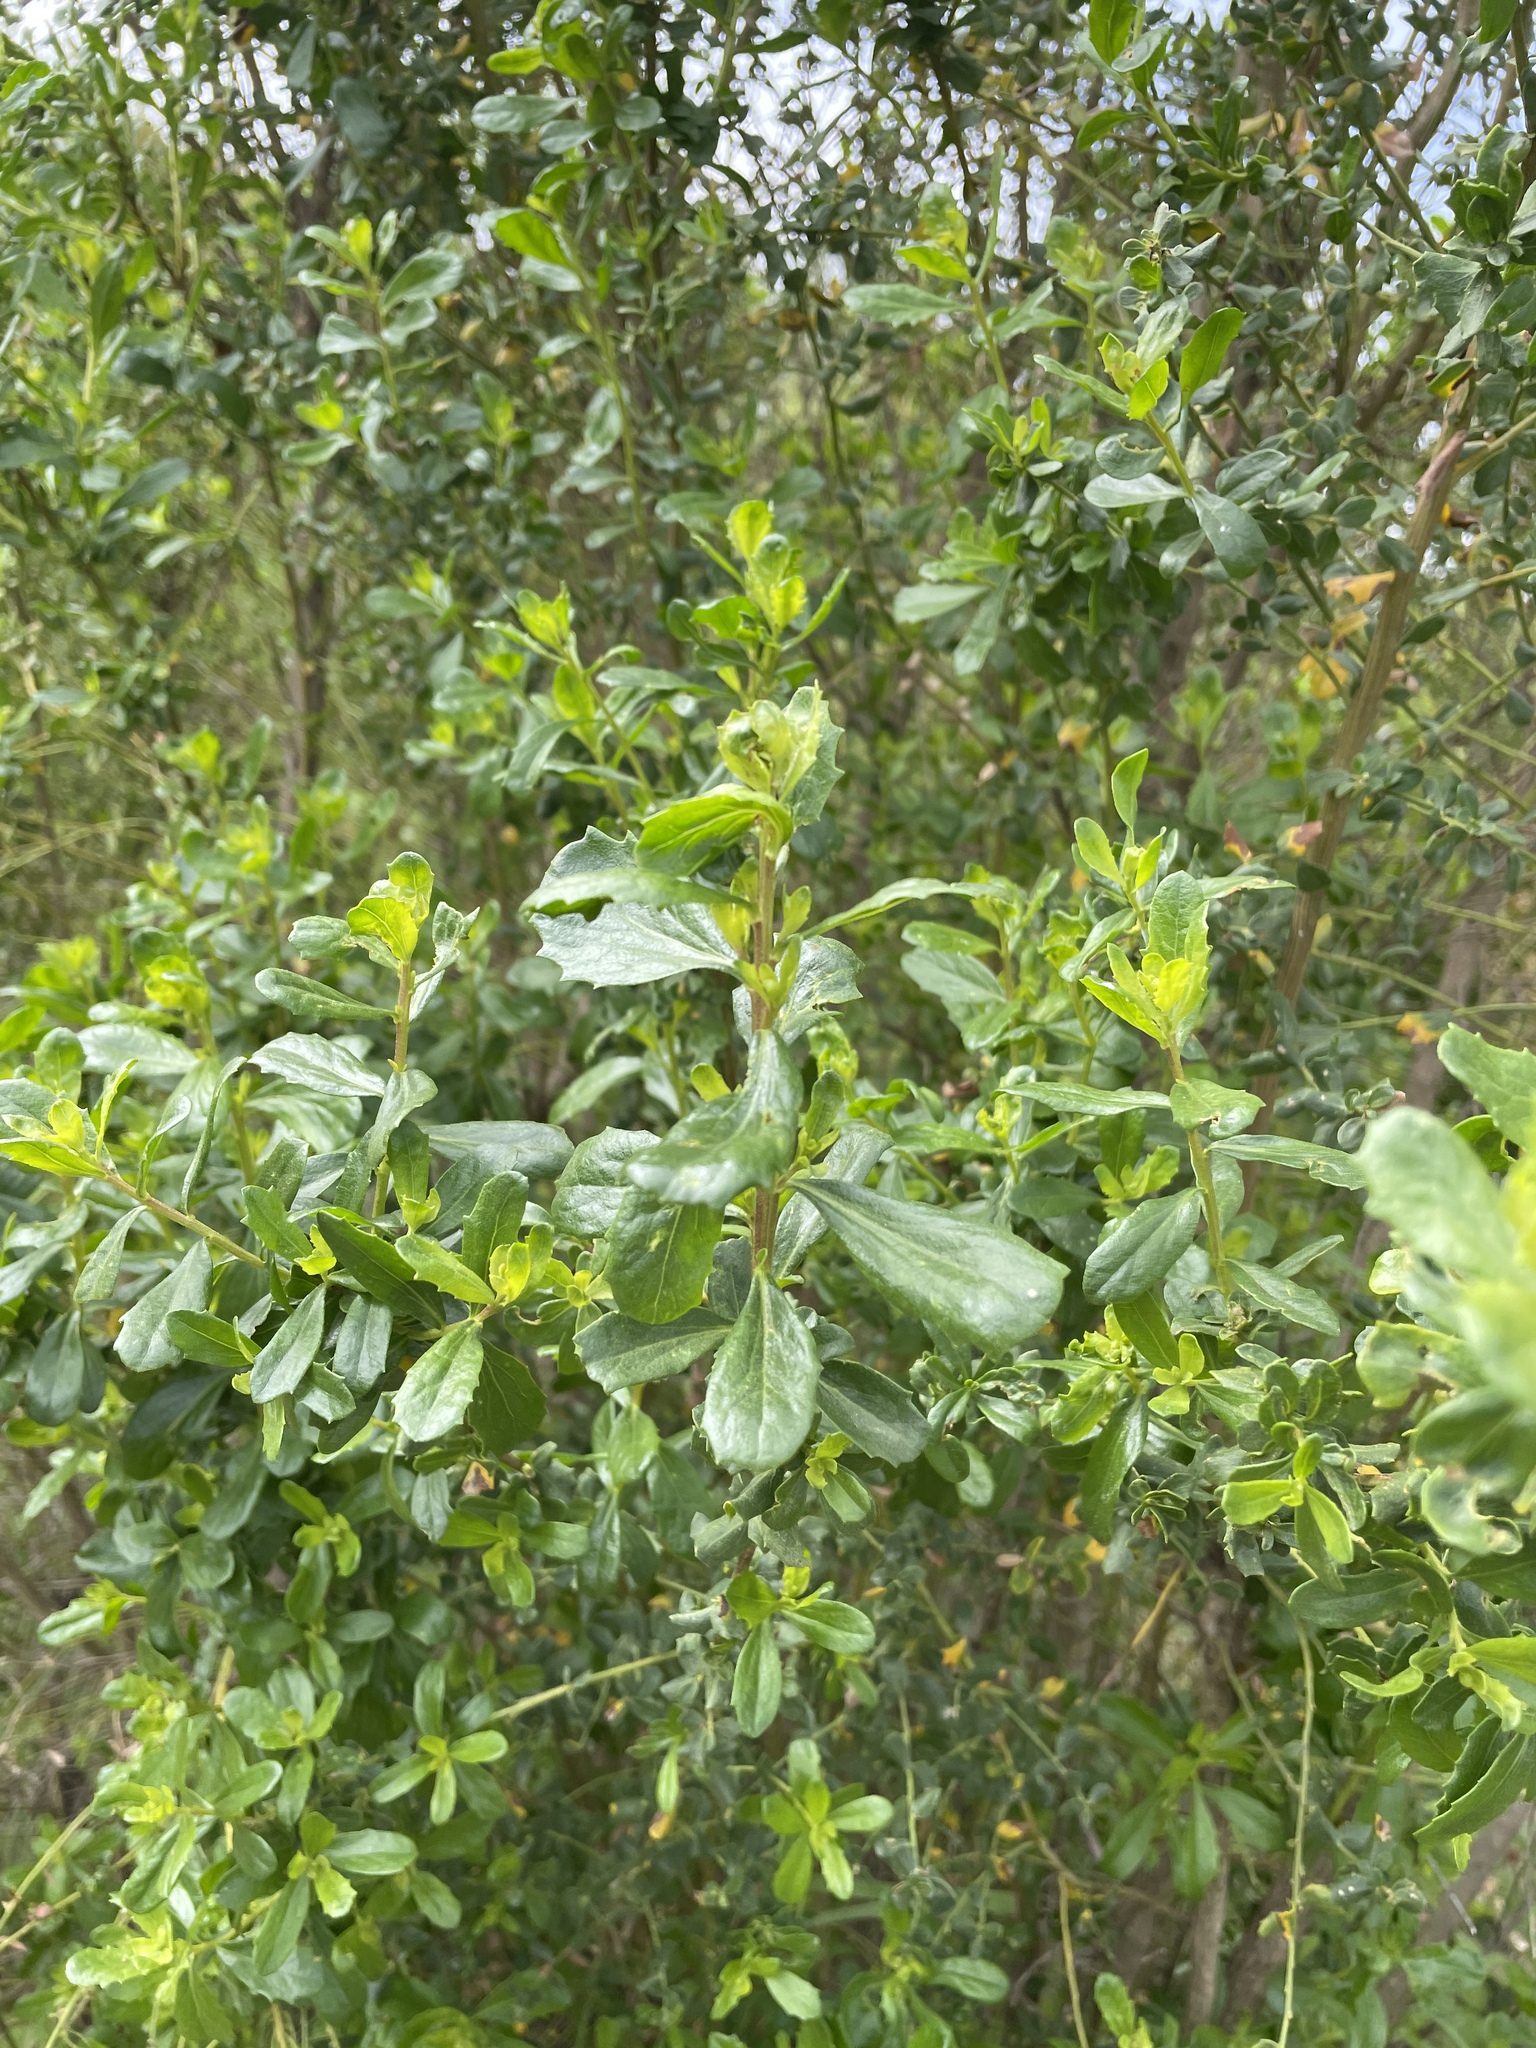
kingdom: Plantae
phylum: Tracheophyta
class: Magnoliopsida
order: Asterales
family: Asteraceae
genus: Baccharis
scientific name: Baccharis pilularis
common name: Coyotebrush
